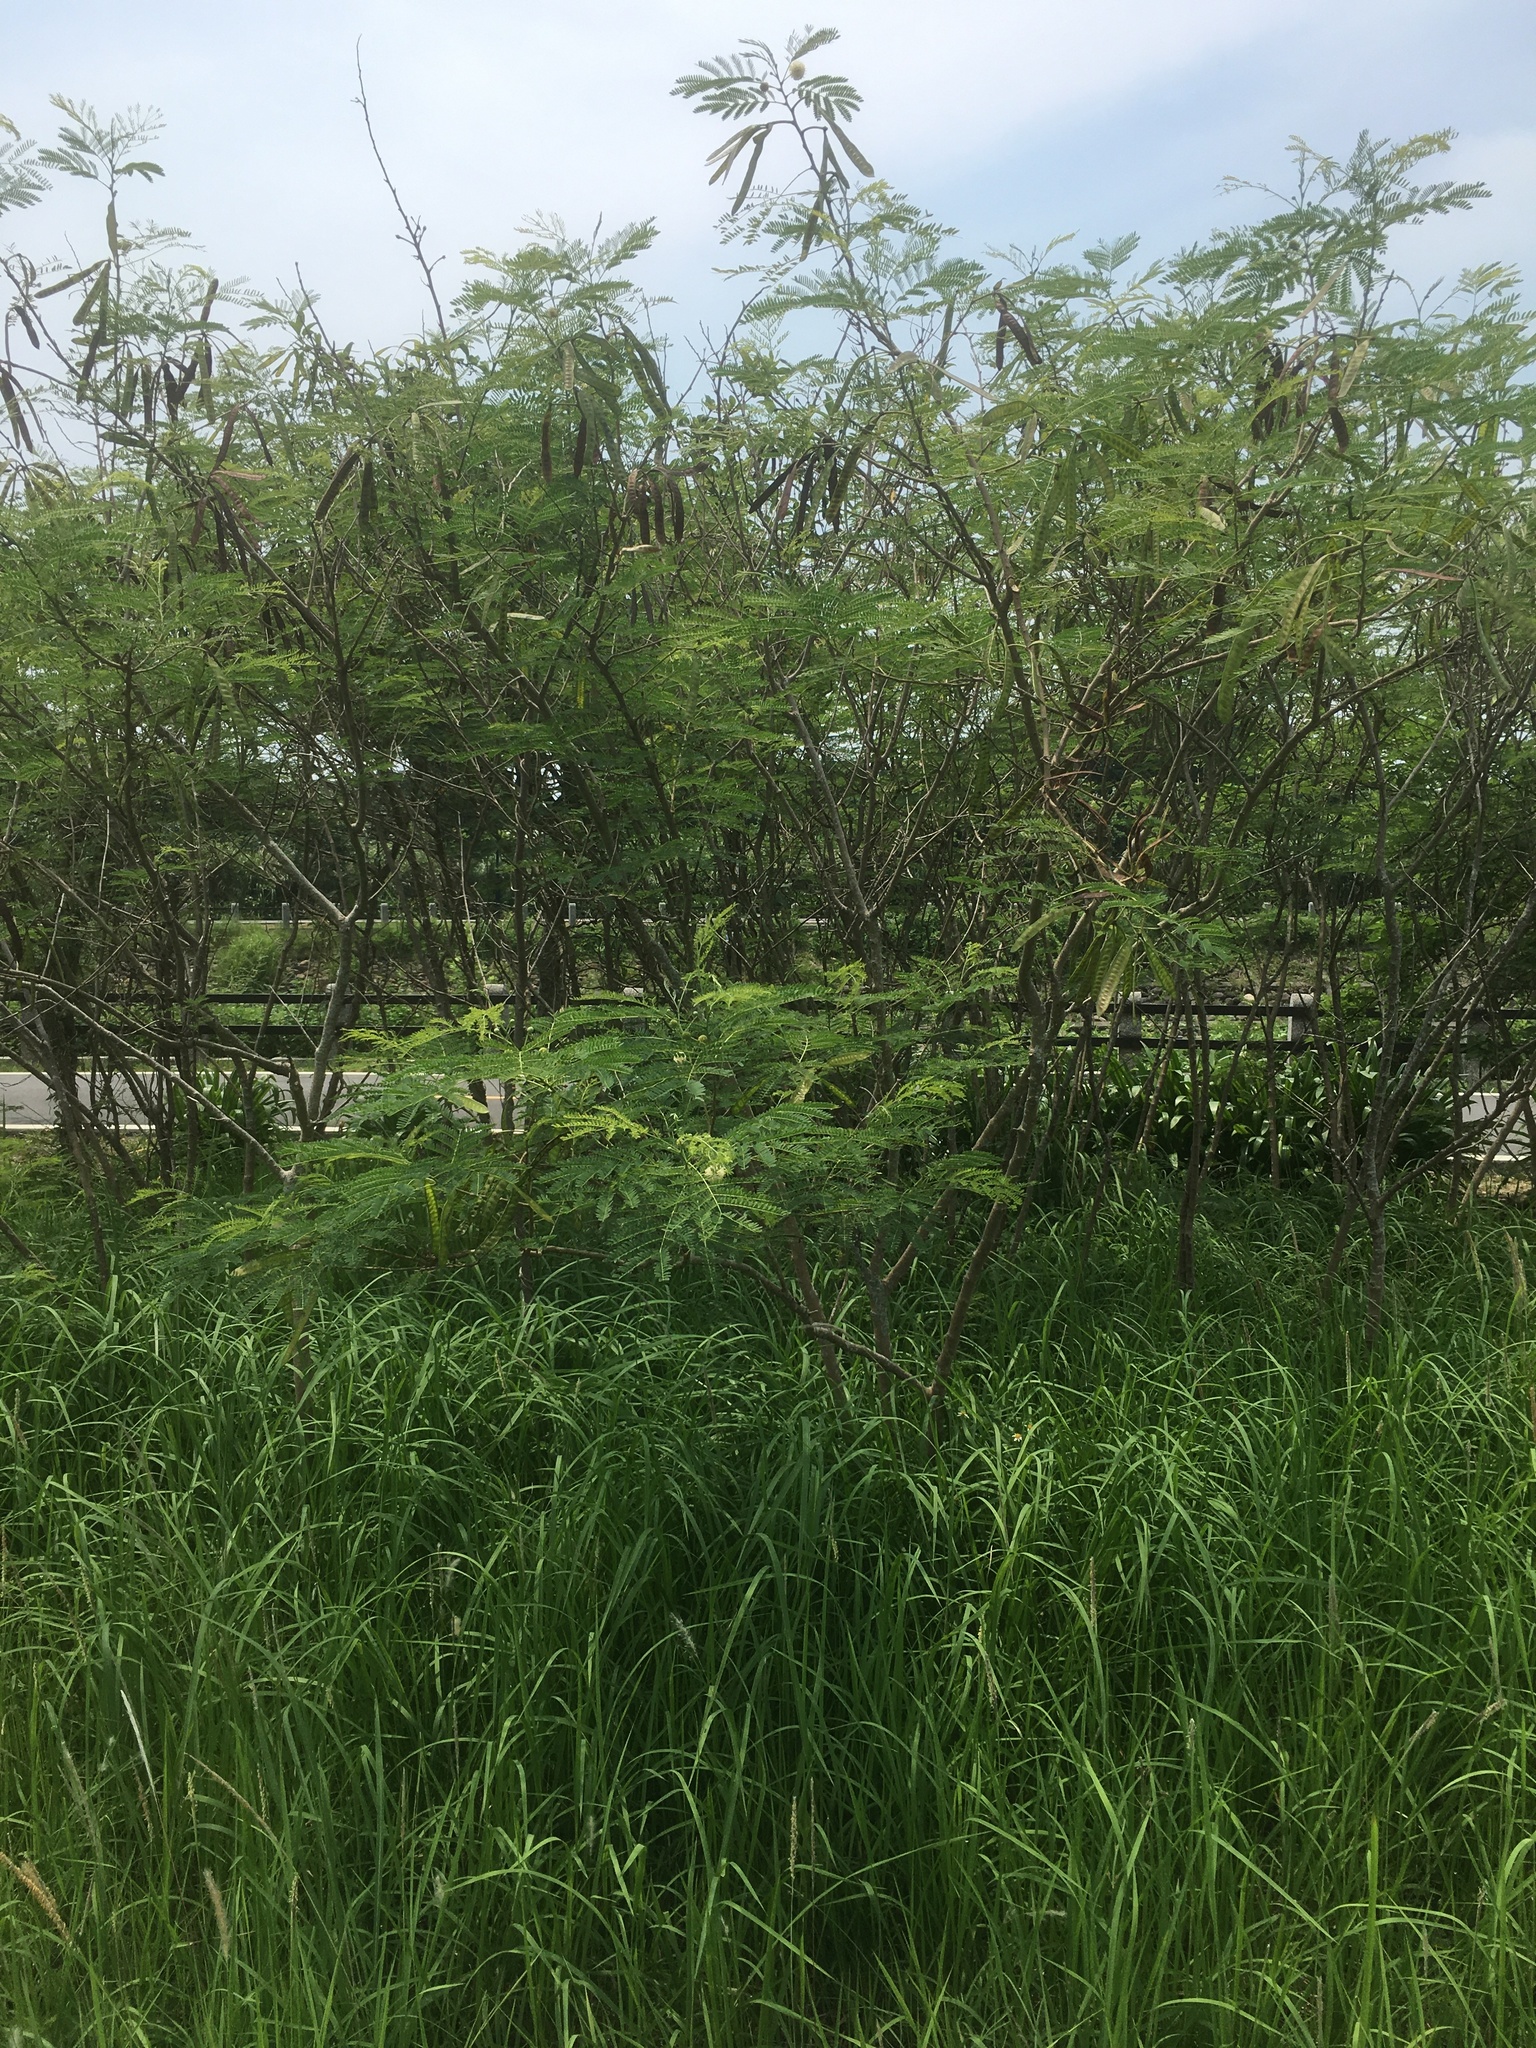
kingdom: Plantae
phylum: Tracheophyta
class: Magnoliopsida
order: Fabales
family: Fabaceae
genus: Leucaena
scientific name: Leucaena leucocephala
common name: White leadtree
